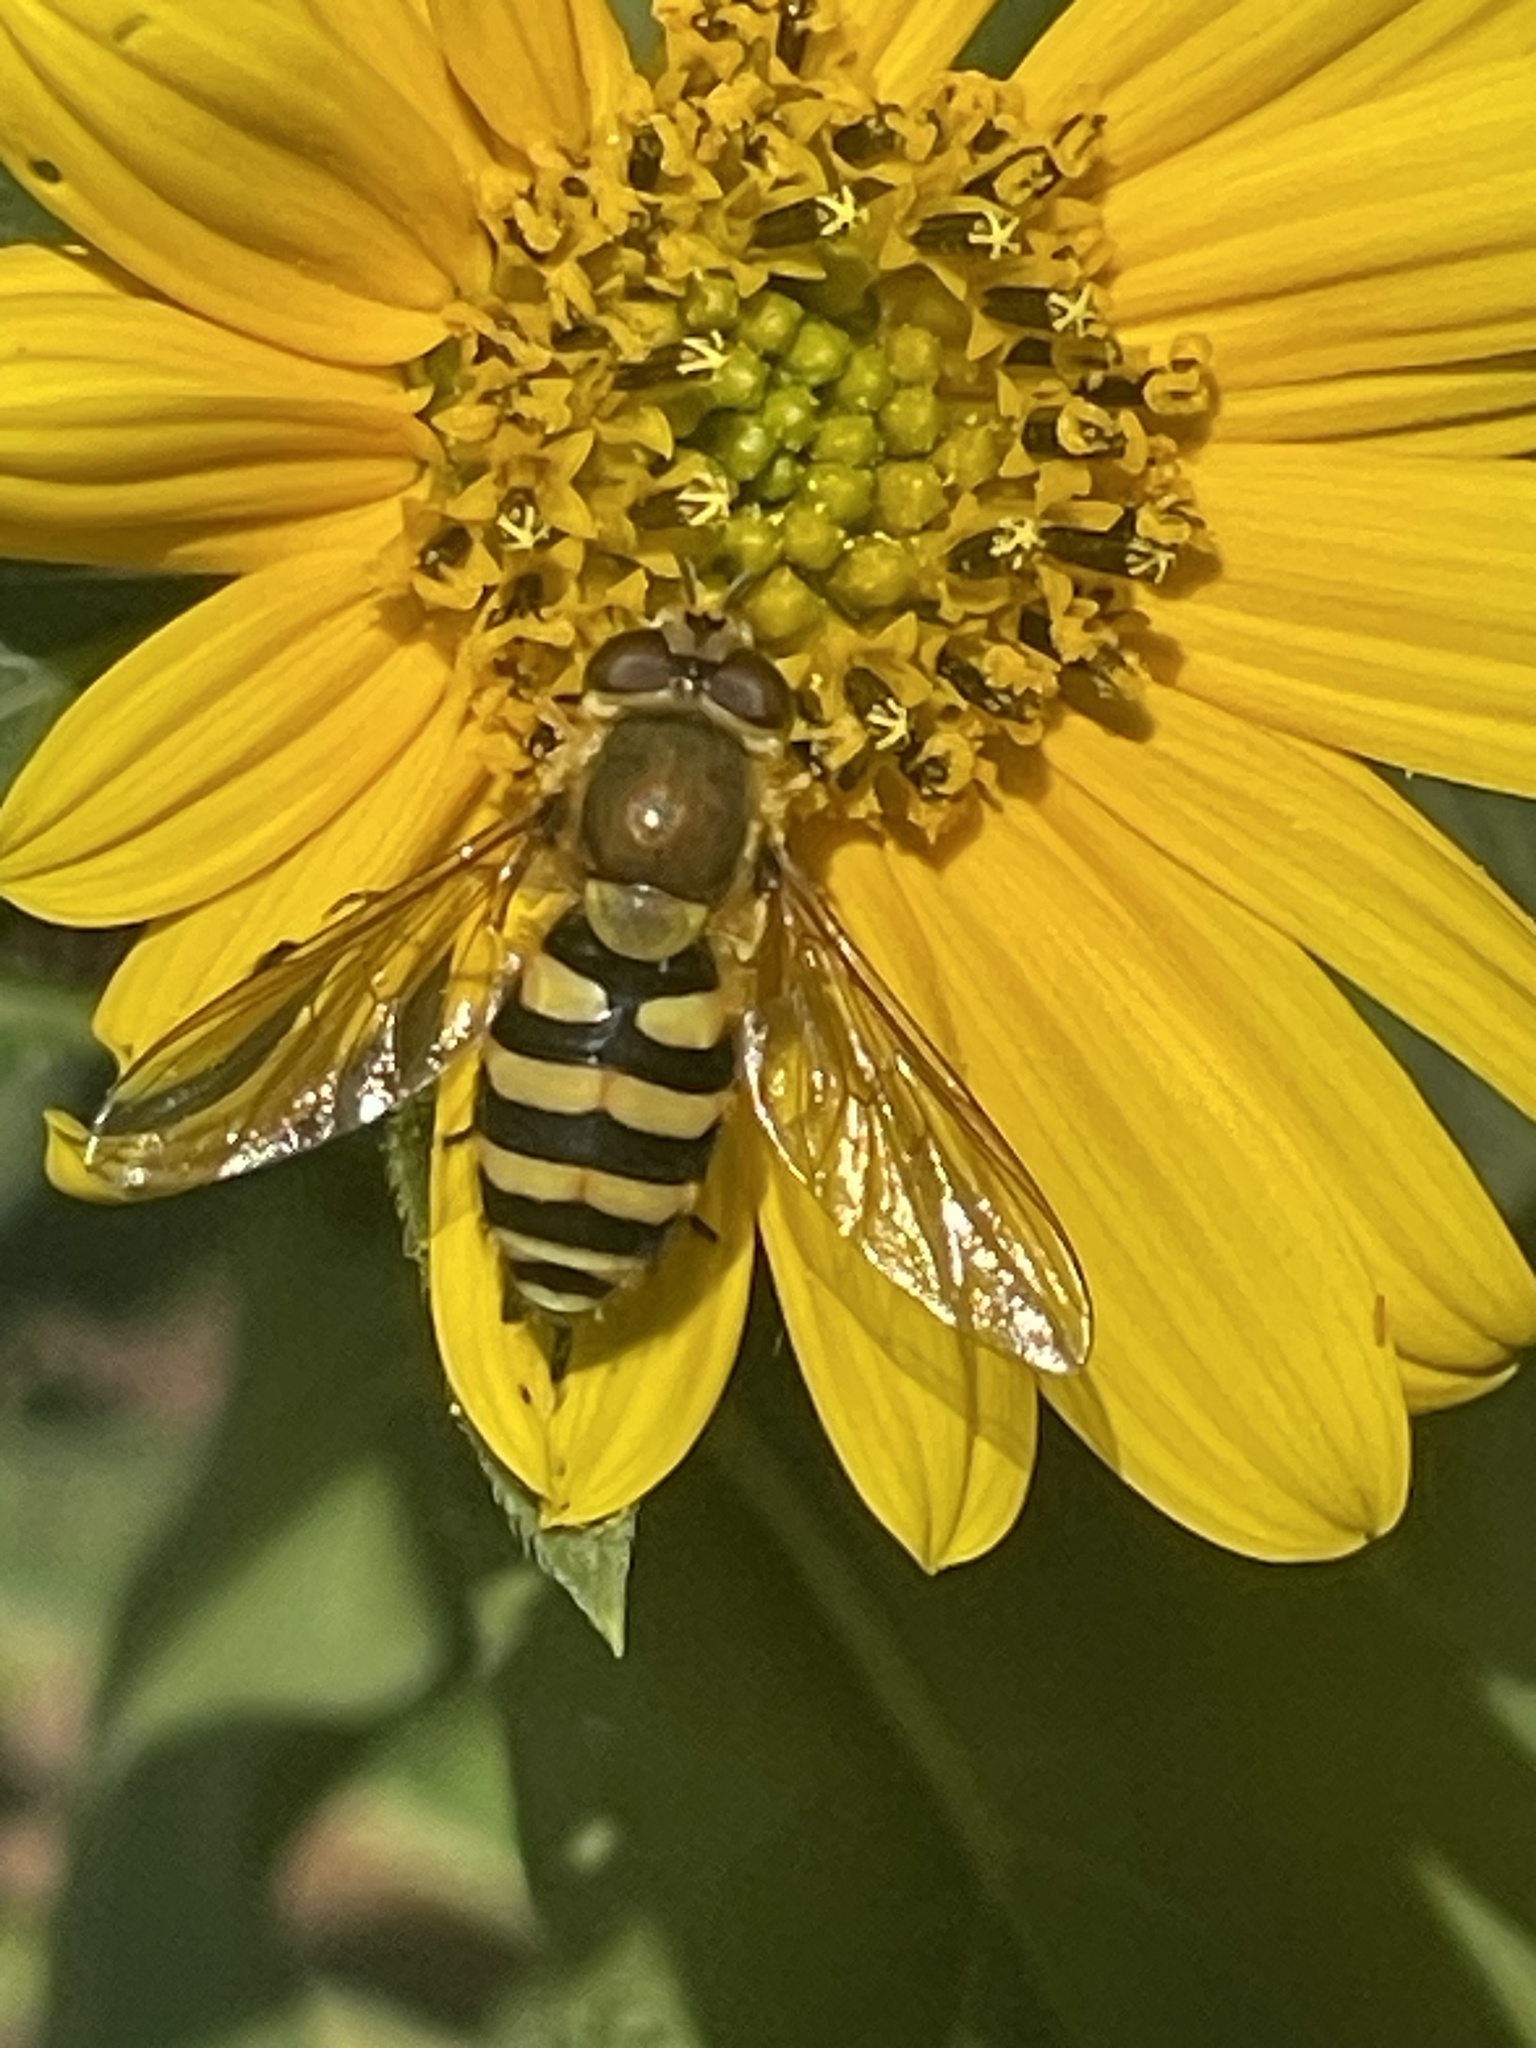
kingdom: Animalia
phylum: Arthropoda
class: Insecta
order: Diptera
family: Syrphidae
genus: Syrphus
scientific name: Syrphus
